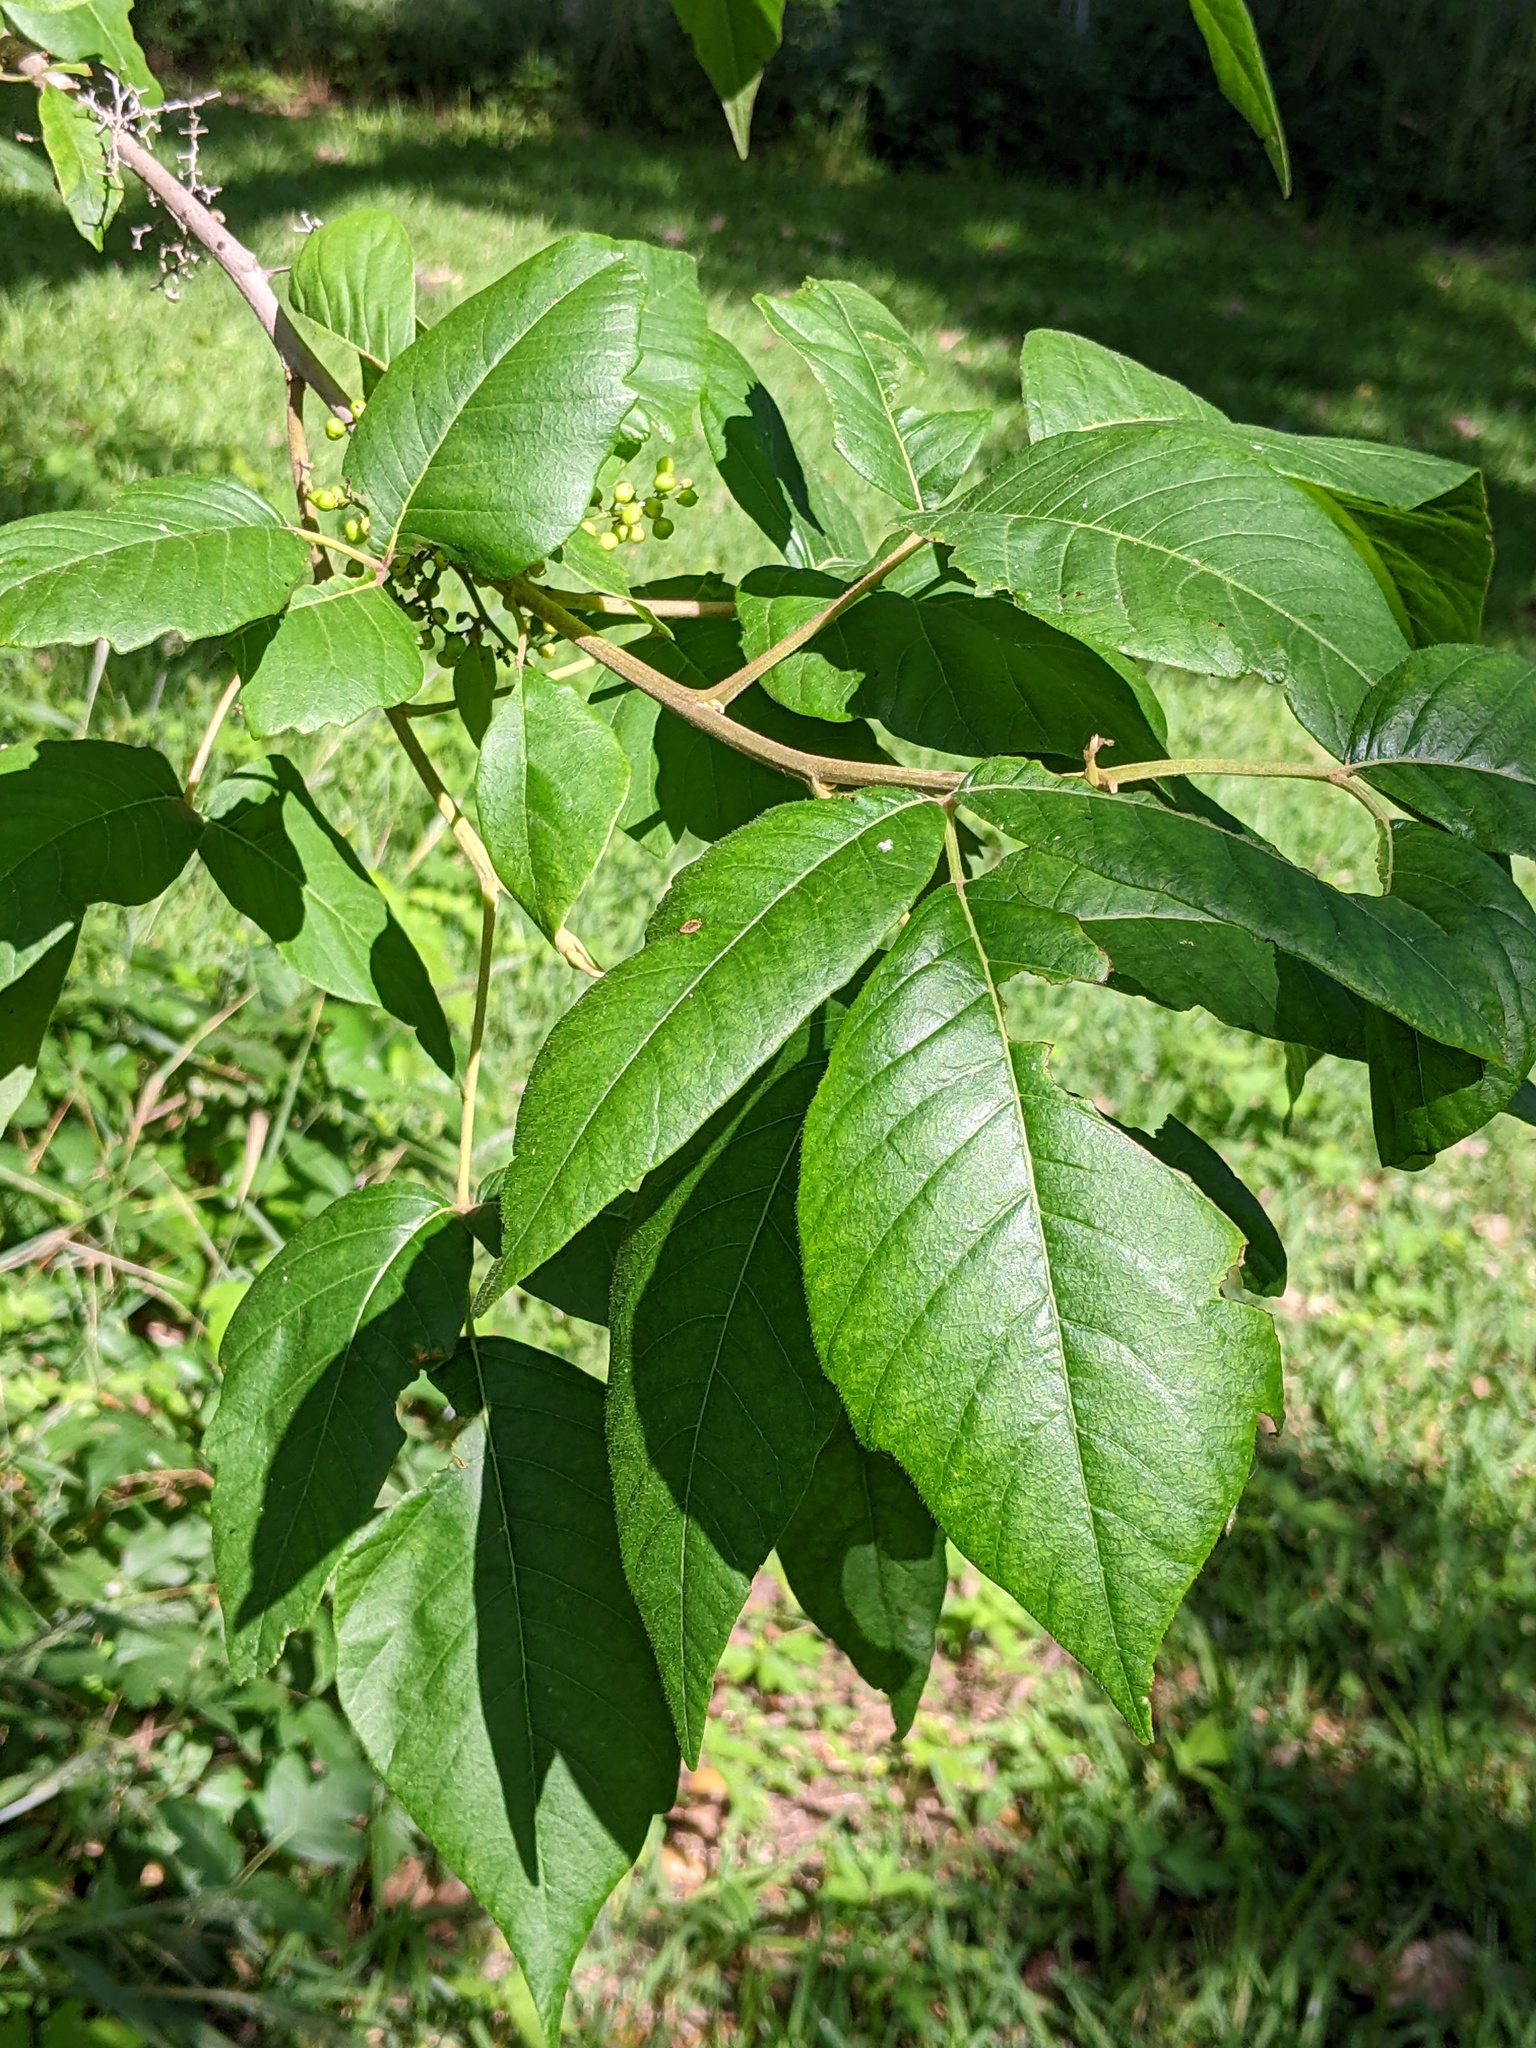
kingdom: Plantae
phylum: Tracheophyta
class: Magnoliopsida
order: Sapindales
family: Anacardiaceae
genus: Toxicodendron
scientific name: Toxicodendron radicans
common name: Poison ivy
